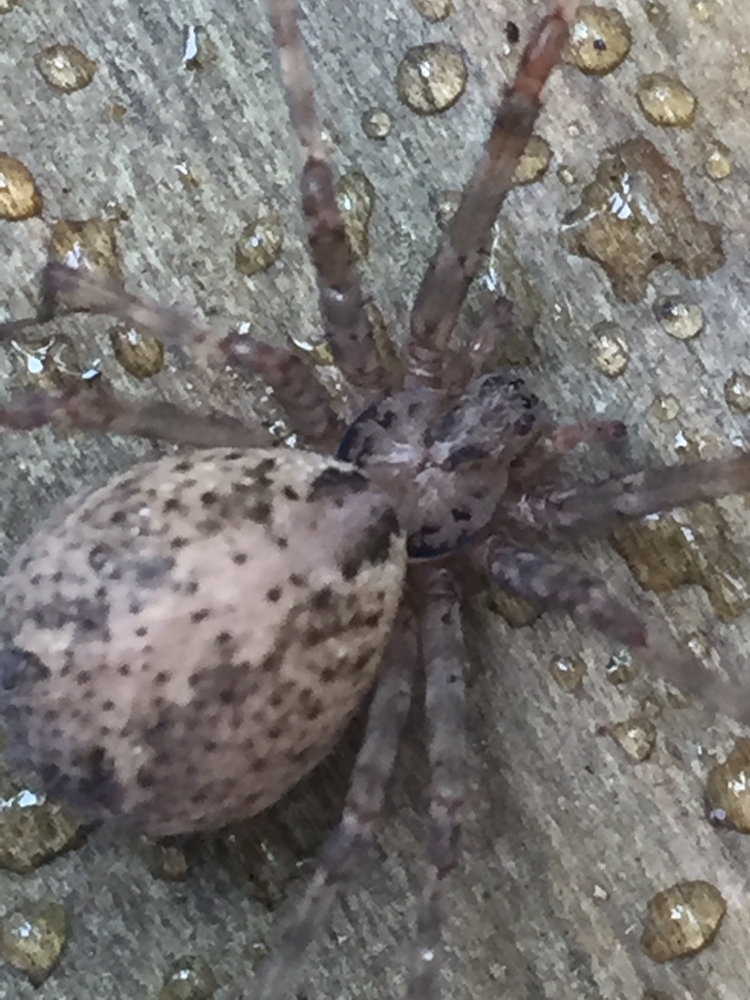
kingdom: Animalia
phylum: Arthropoda
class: Arachnida
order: Araneae
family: Stiphidiidae
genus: Stiphidion
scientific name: Stiphidion facetum
